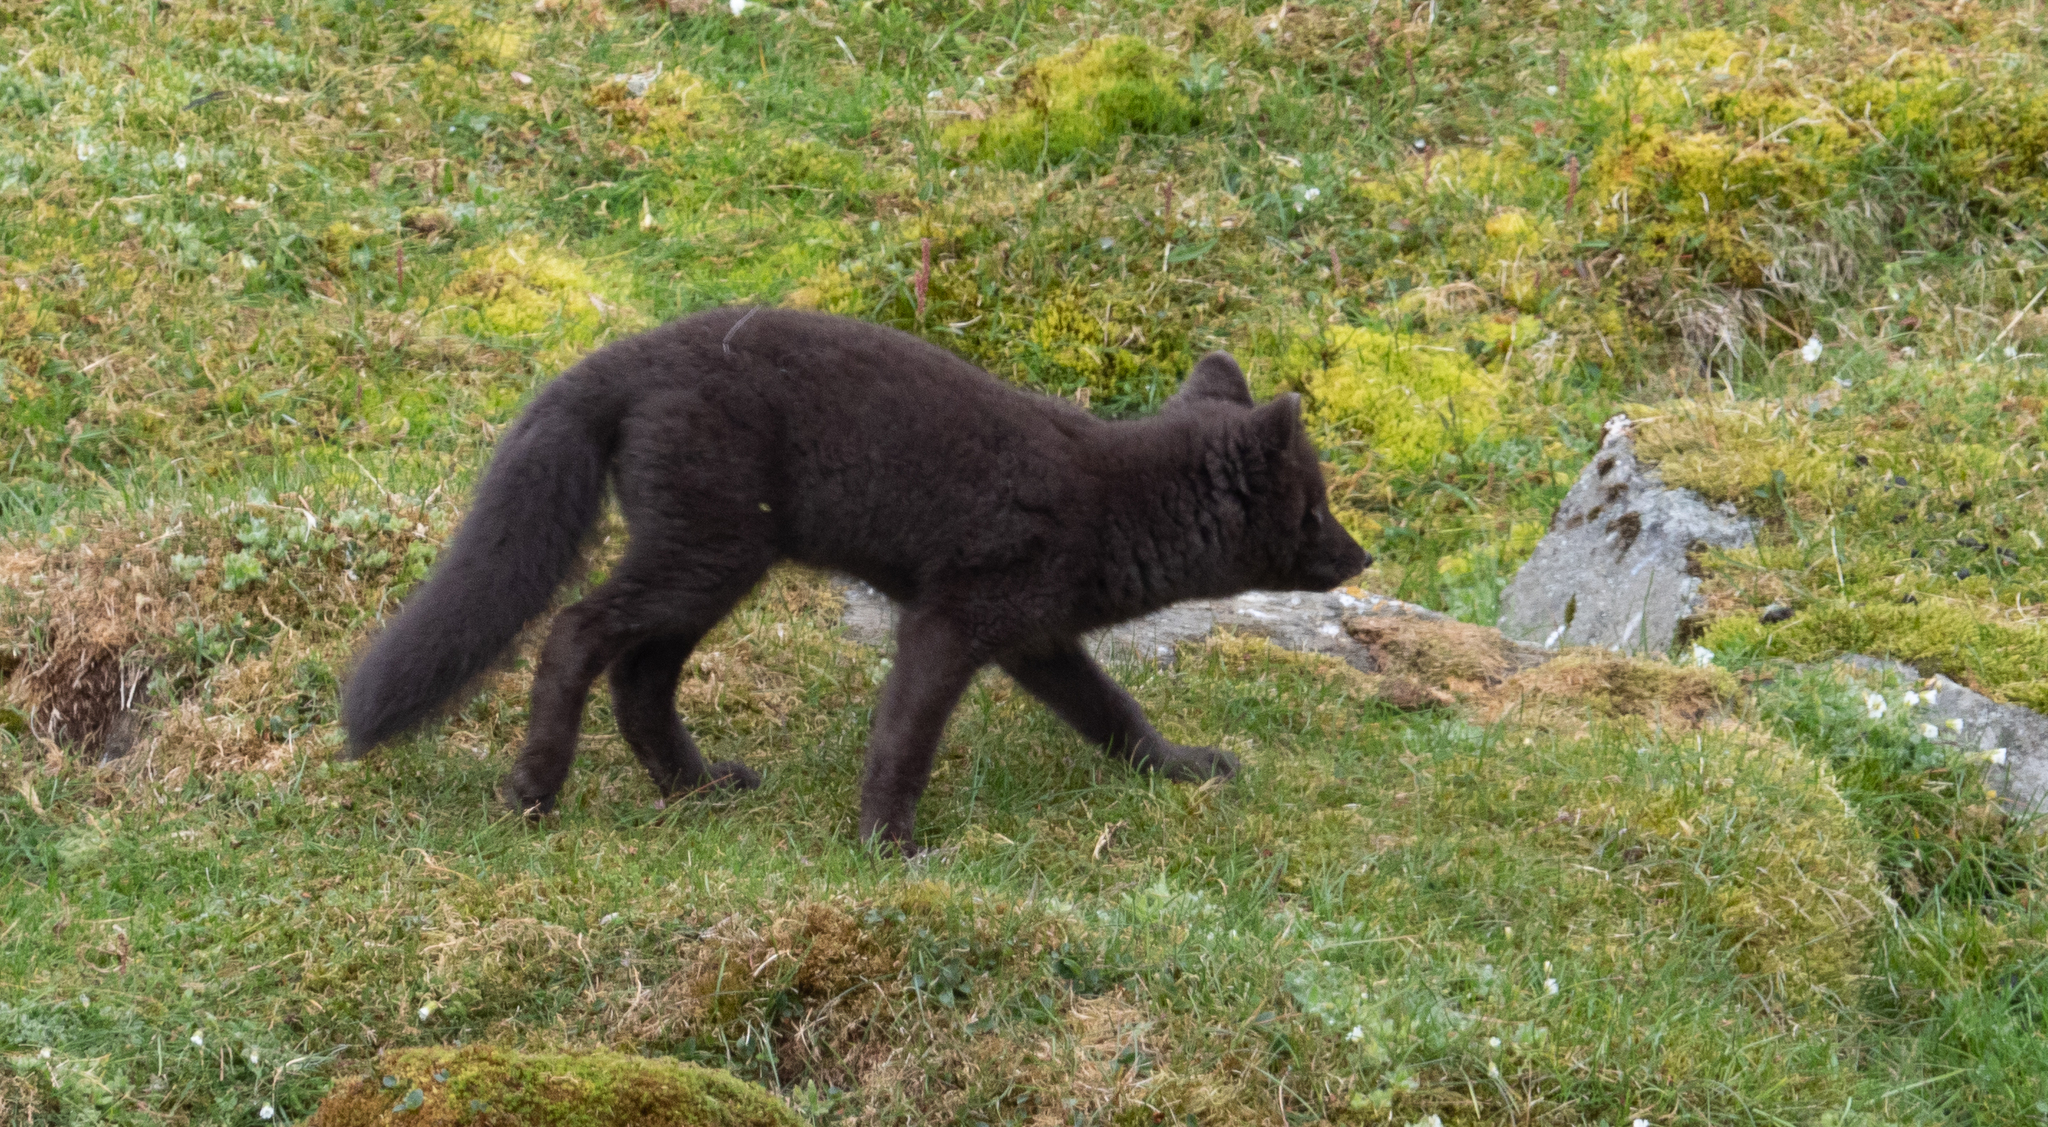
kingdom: Animalia
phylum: Chordata
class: Mammalia
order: Carnivora
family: Canidae
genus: Vulpes
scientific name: Vulpes lagopus
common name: Arctic fox
